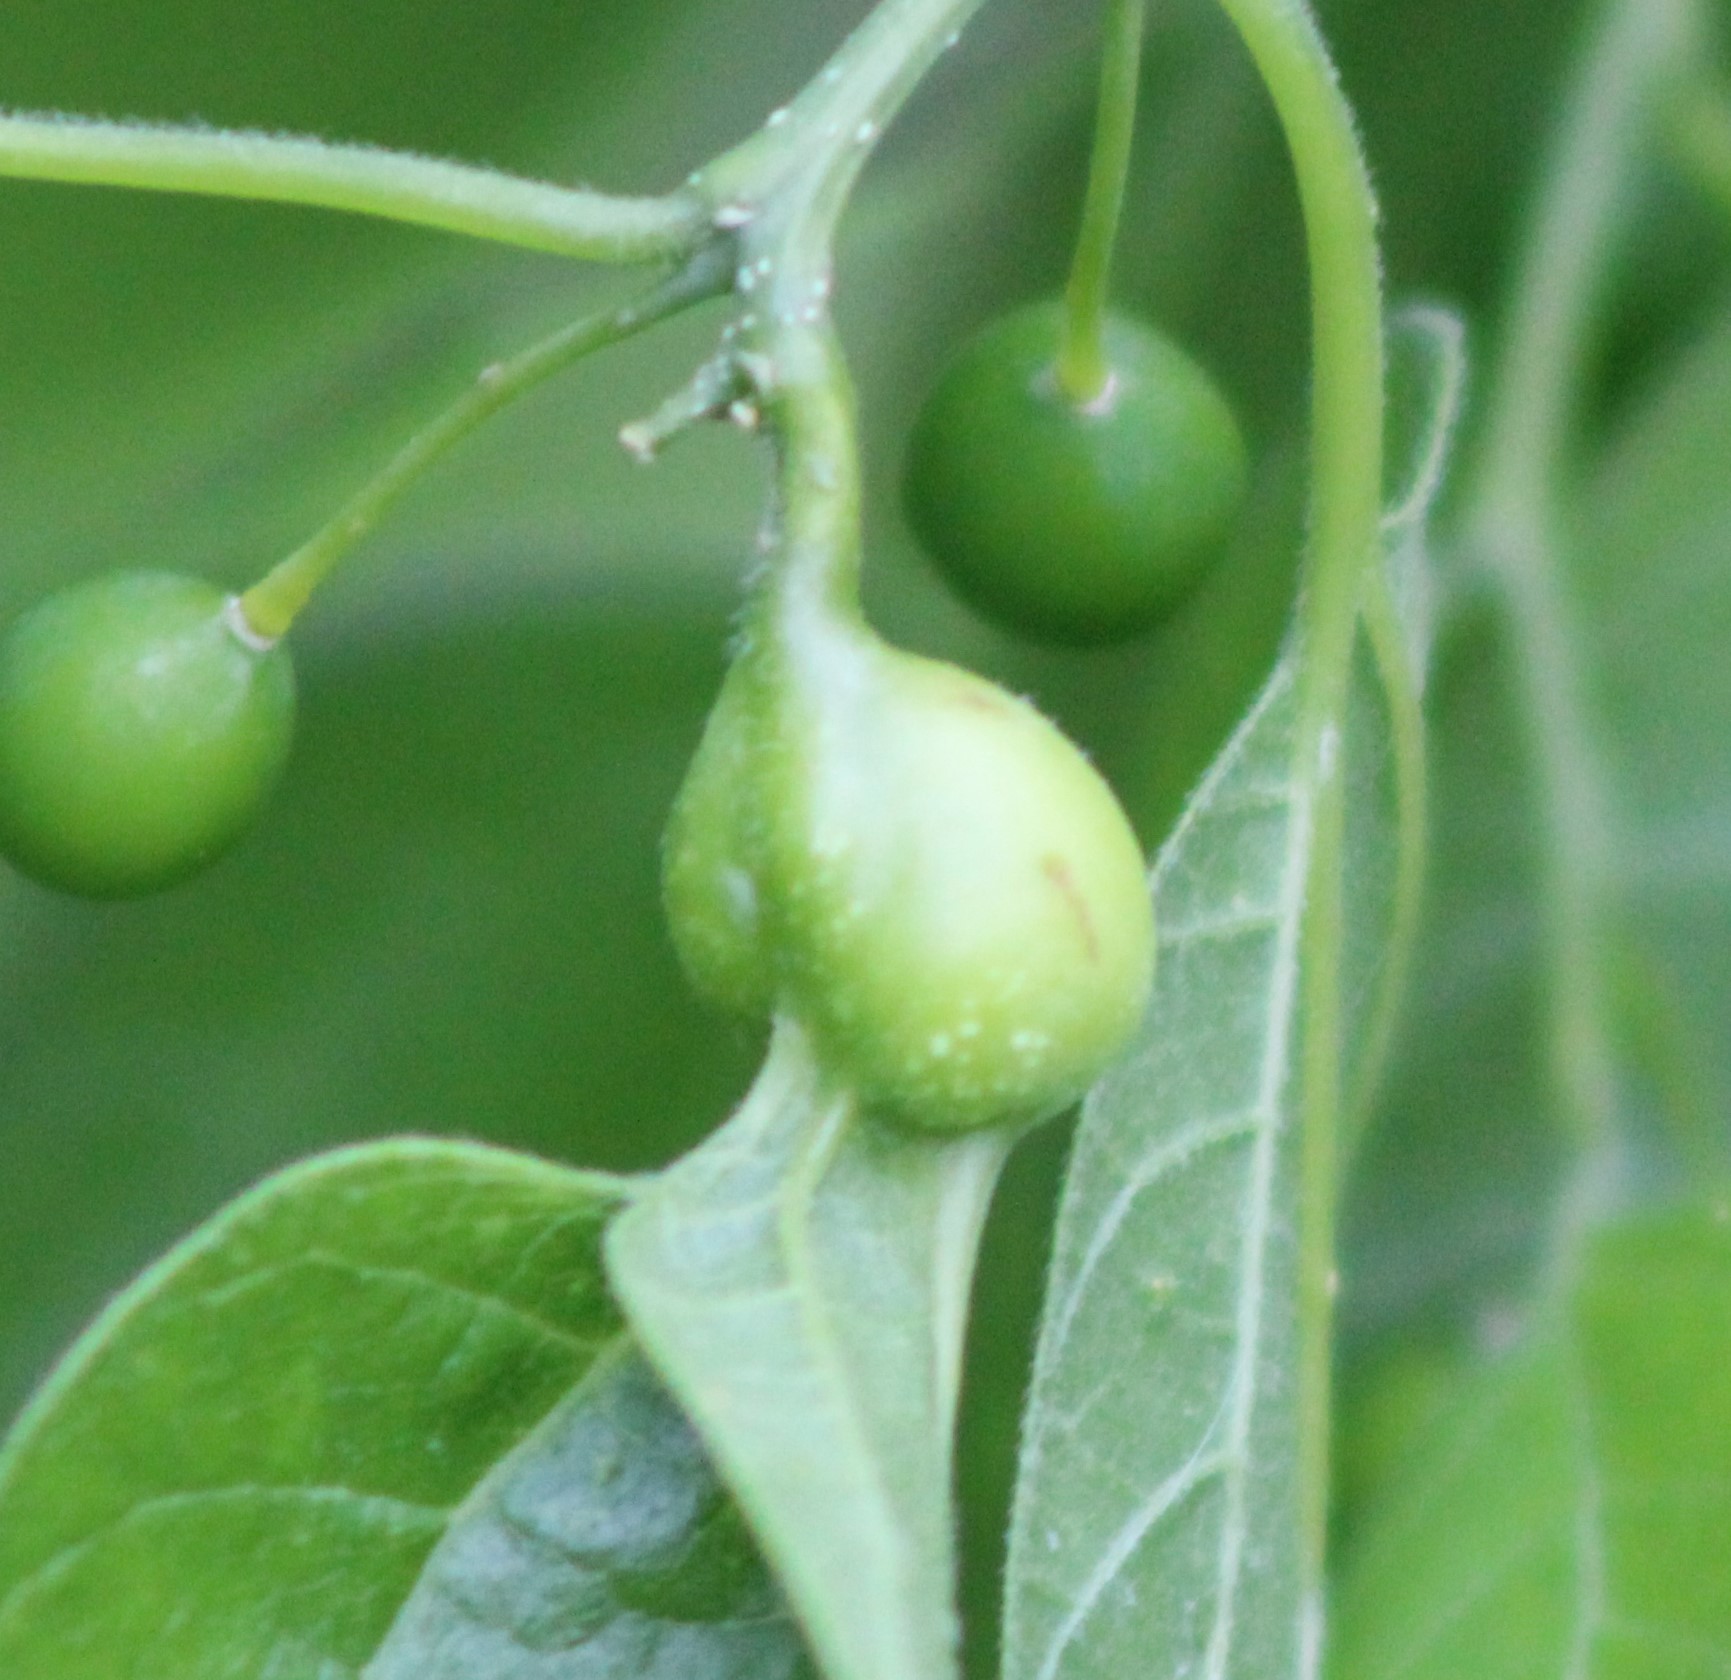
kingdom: Animalia
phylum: Arthropoda
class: Insecta
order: Hemiptera
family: Aphalaridae
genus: Pachypsylla
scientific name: Pachypsylla venusta
